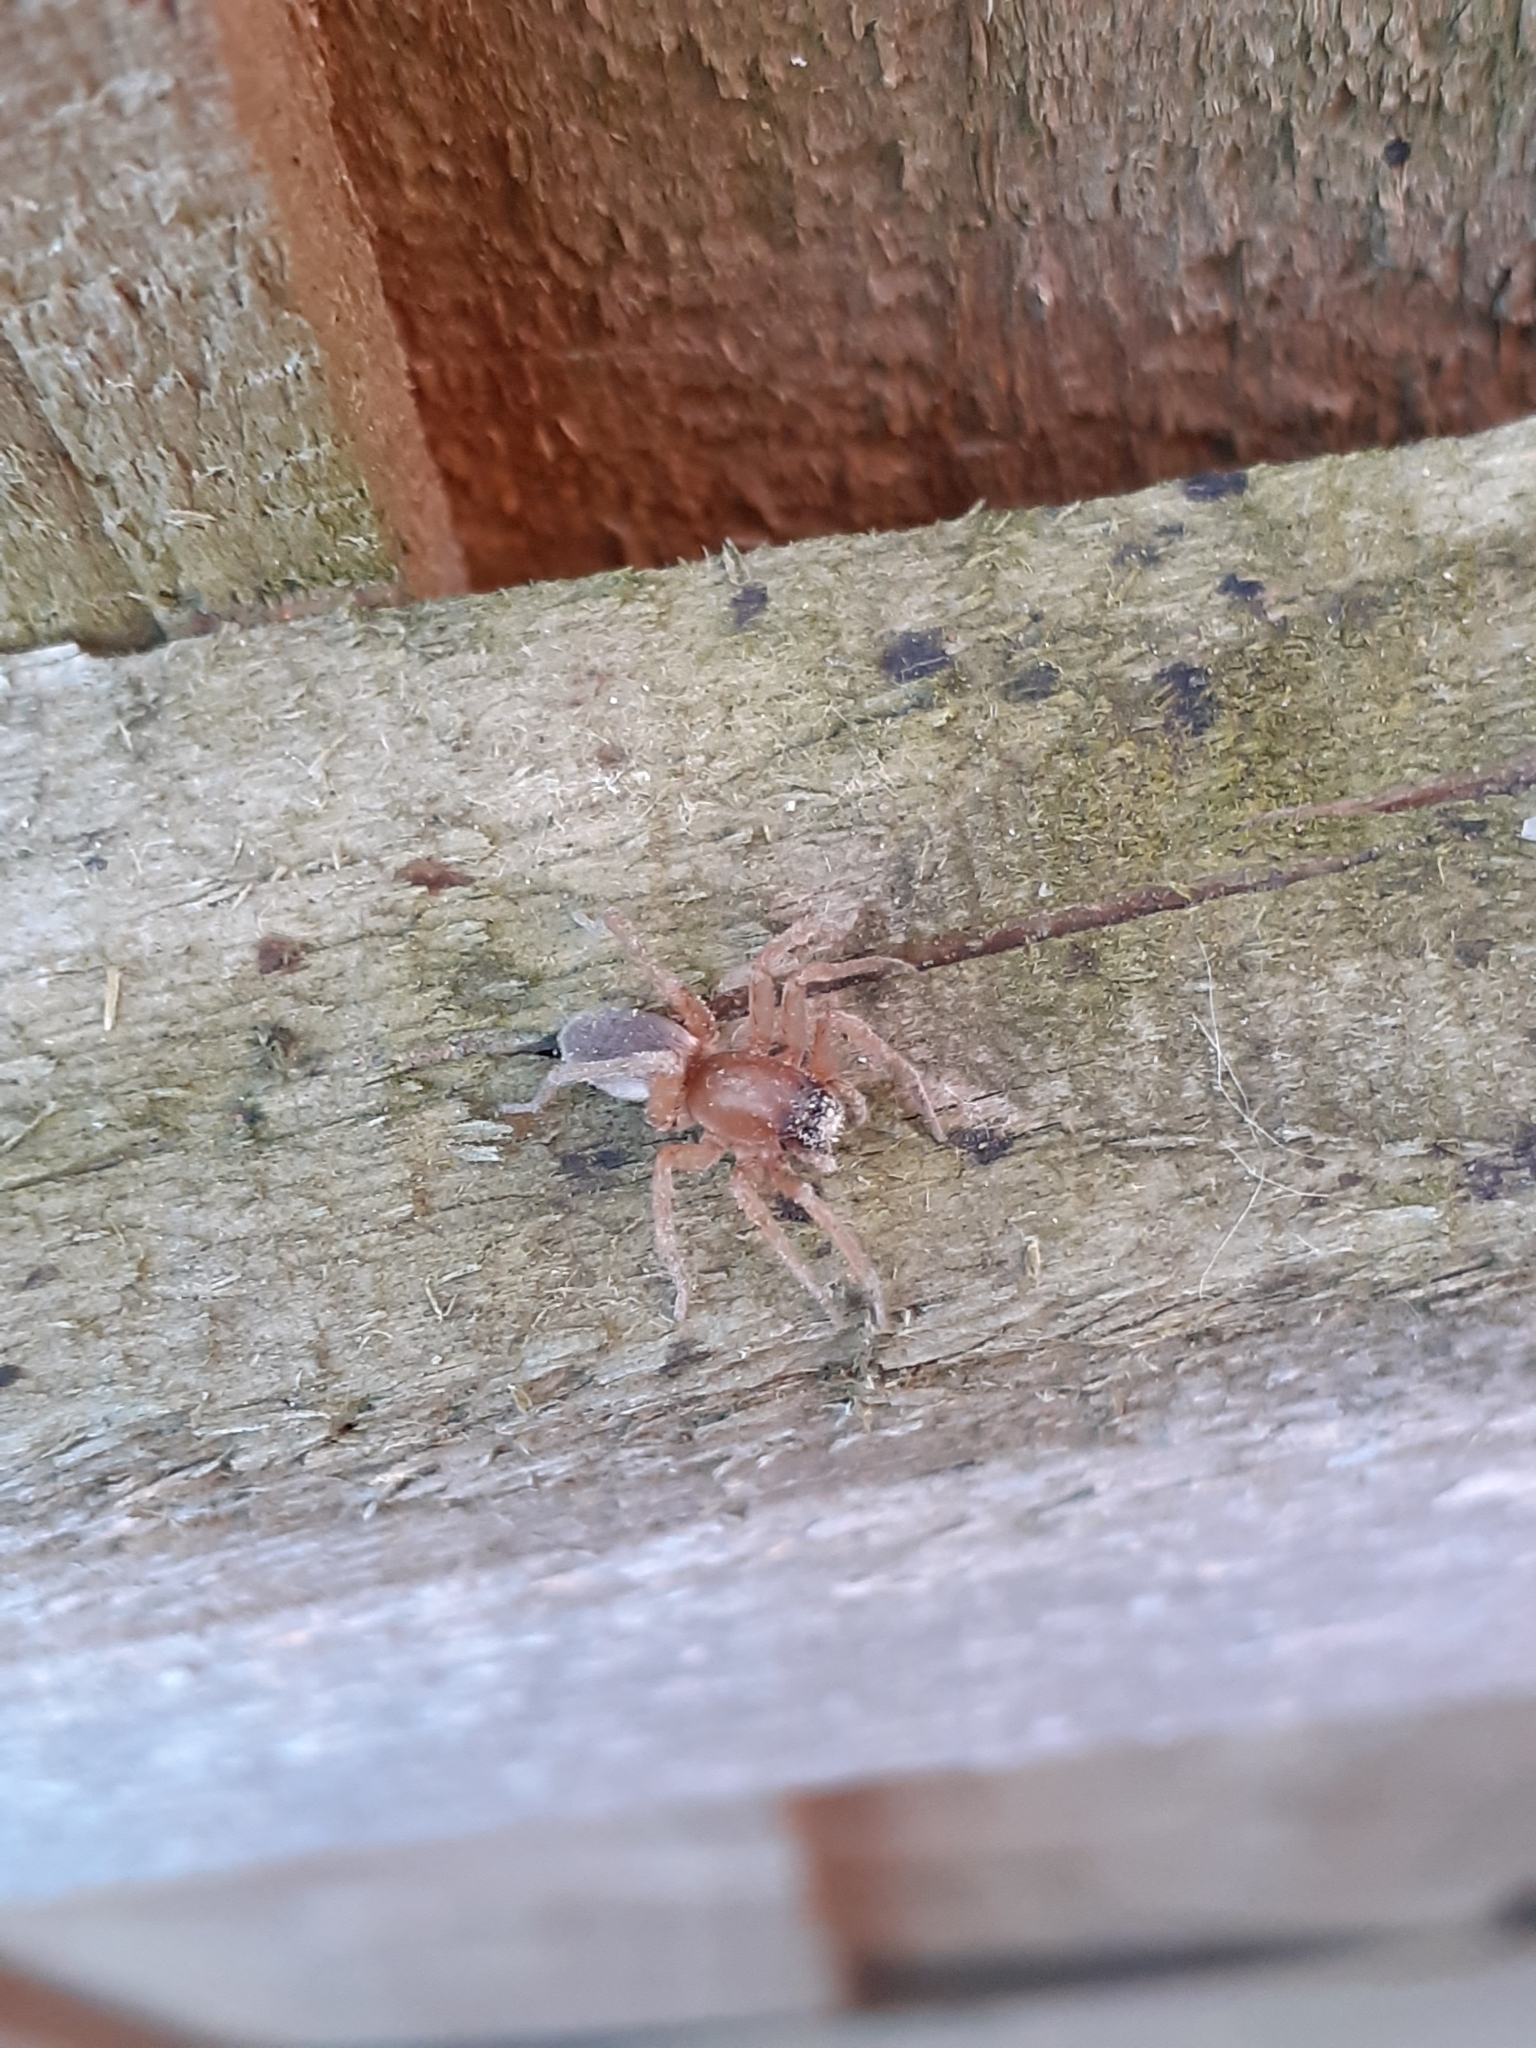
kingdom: Animalia
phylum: Arthropoda
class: Arachnida
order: Araneae
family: Gnaphosidae
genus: Scotophaeus
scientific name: Scotophaeus blackwalli
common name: Mouse spider
